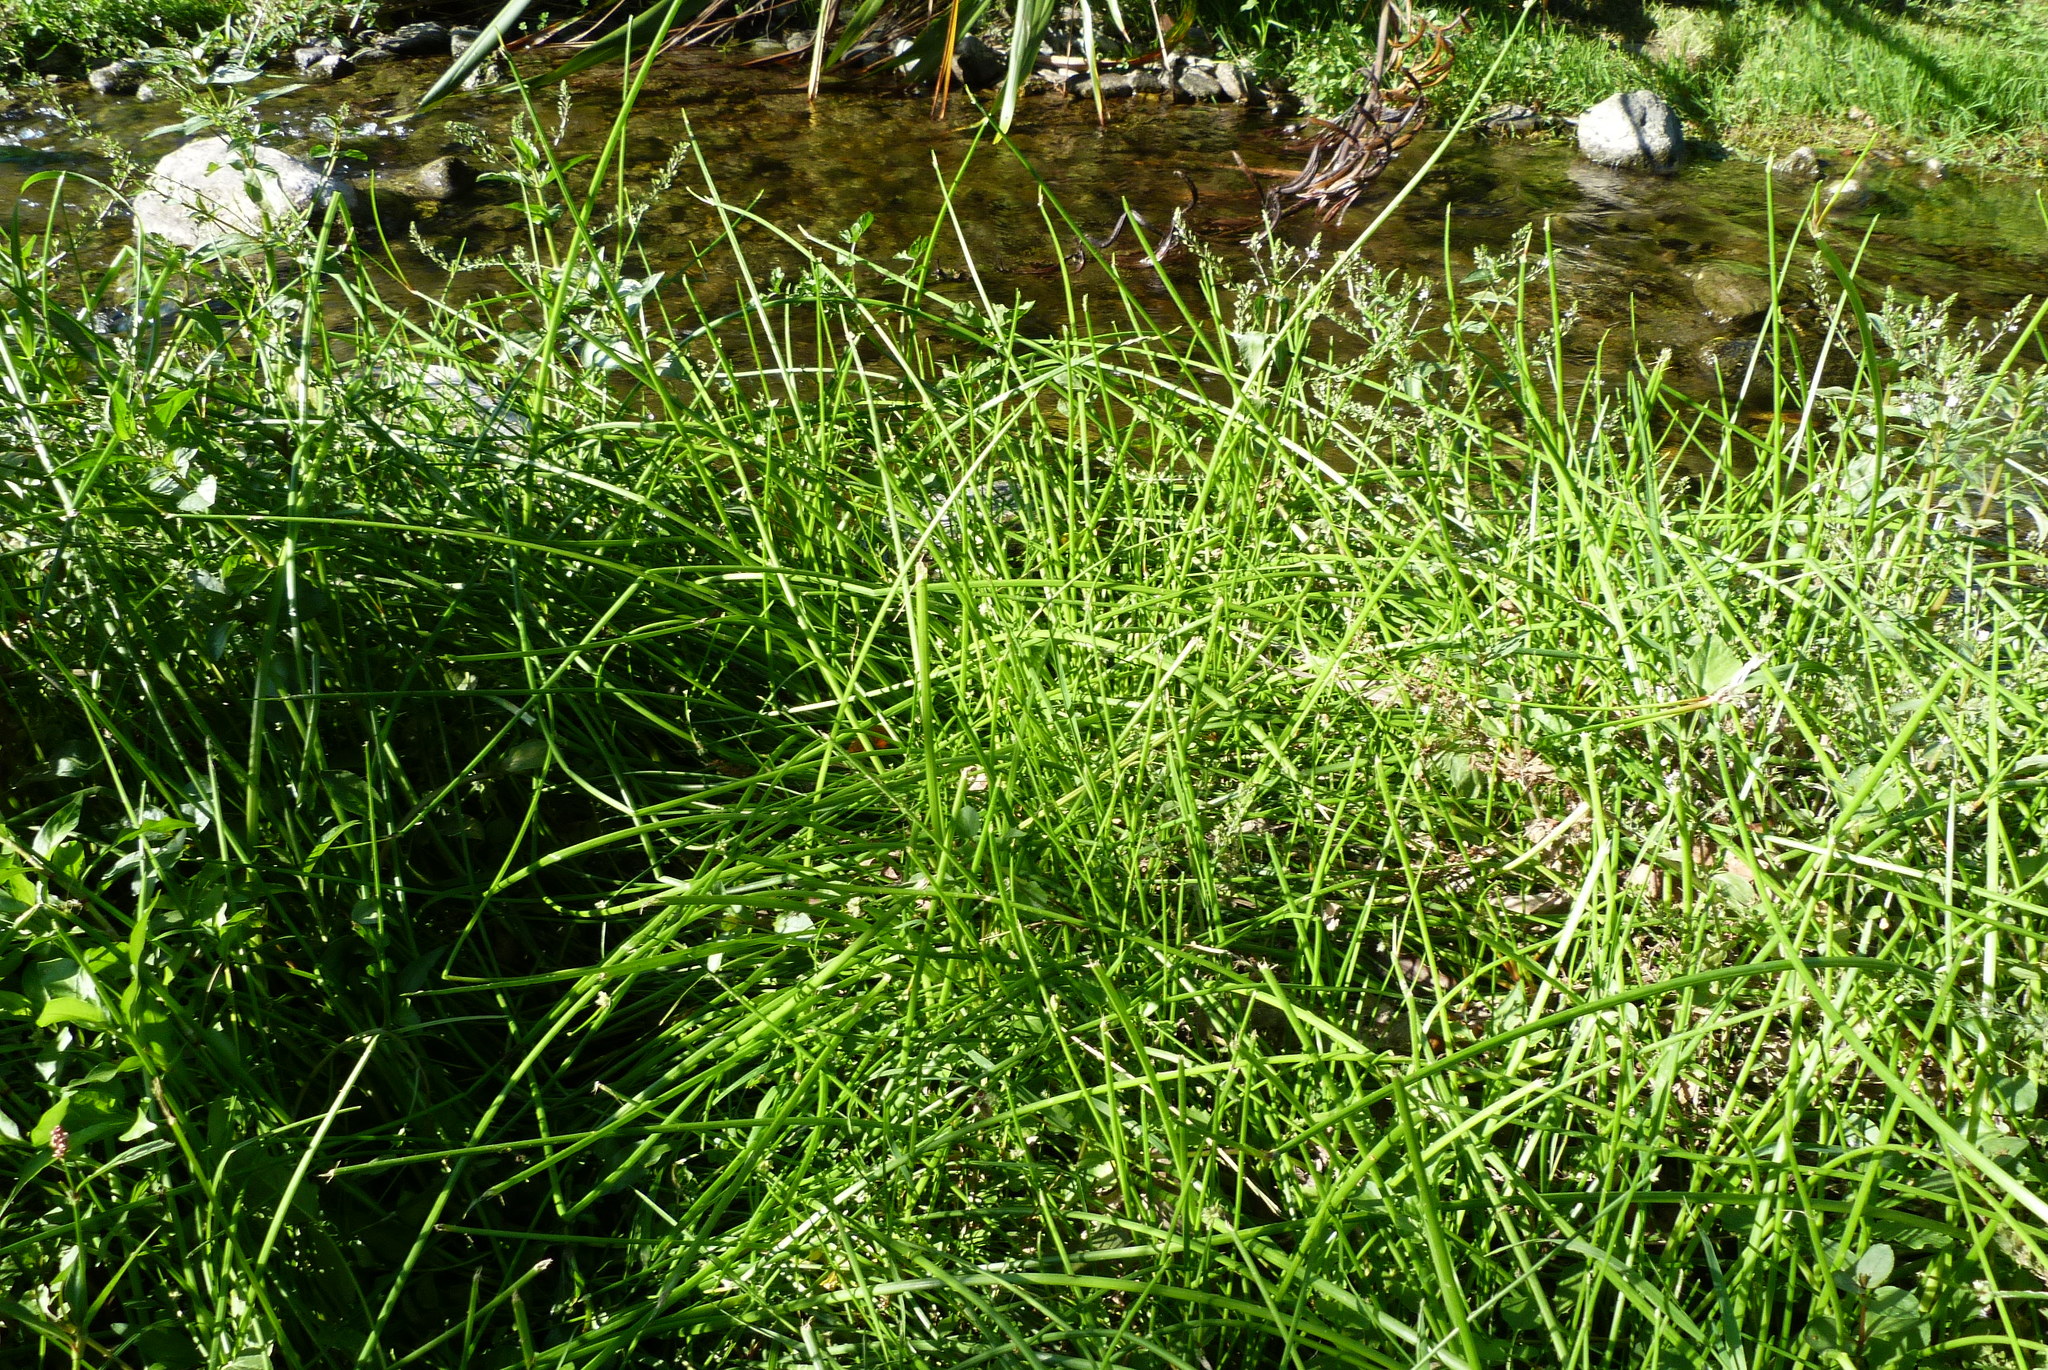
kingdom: Plantae
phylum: Tracheophyta
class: Liliopsida
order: Poales
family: Cyperaceae
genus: Isolepis
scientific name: Isolepis prolifera
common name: Proliferating bulrush
